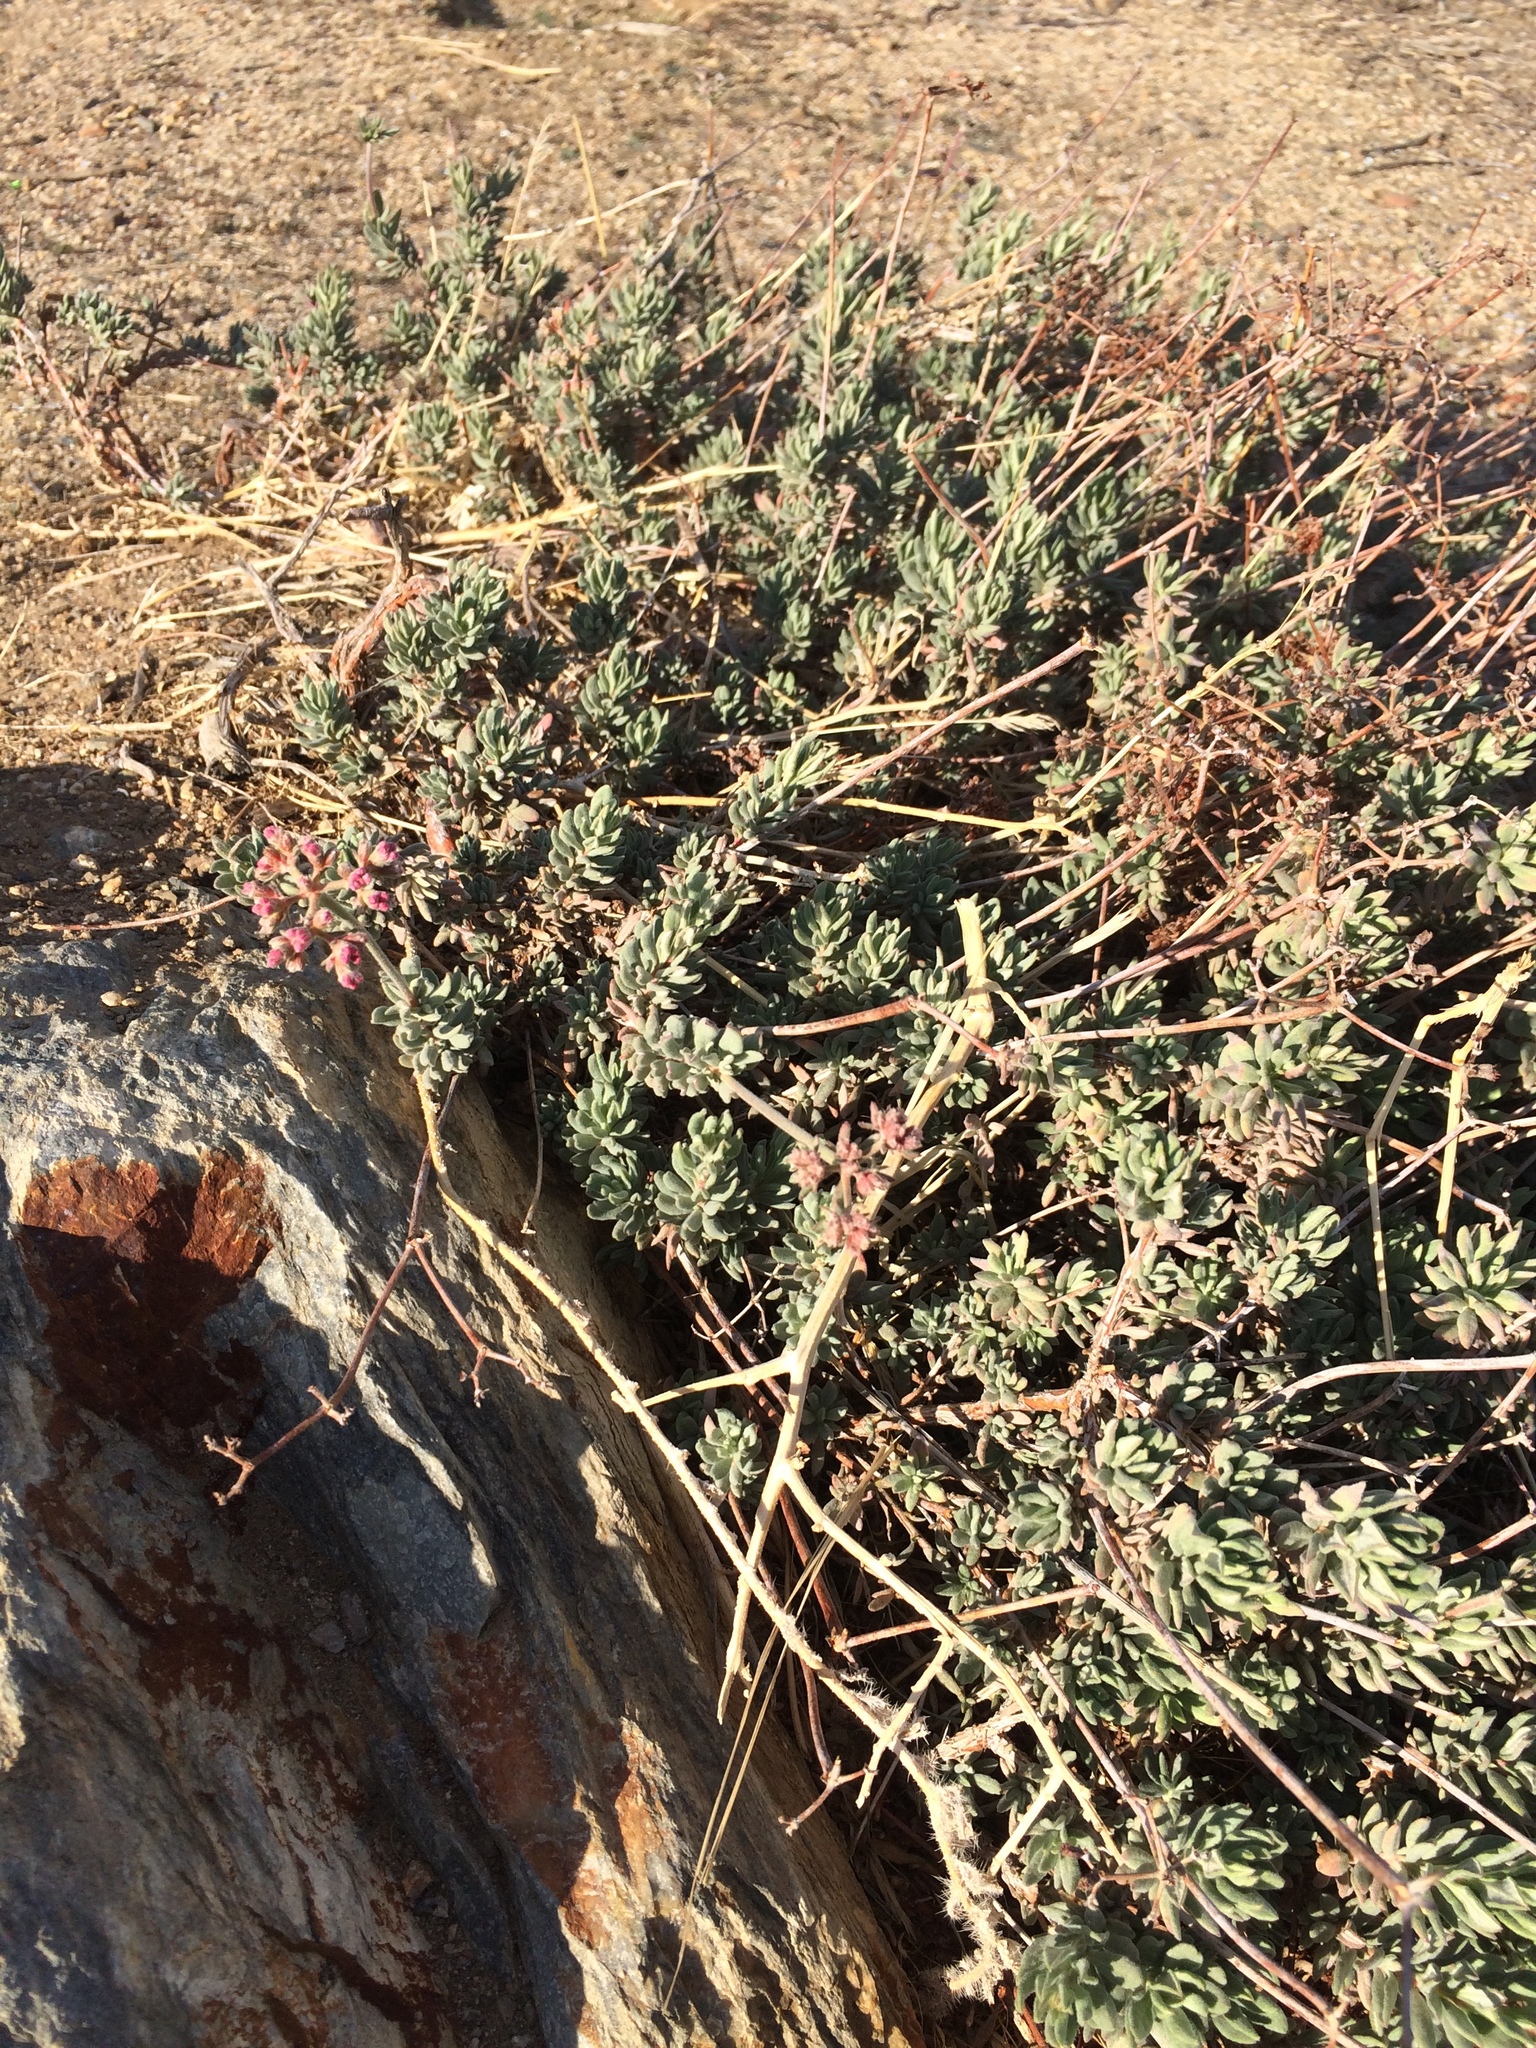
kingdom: Plantae
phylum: Tracheophyta
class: Magnoliopsida
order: Caryophyllales
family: Polygonaceae
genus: Eriogonum
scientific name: Eriogonum fasciculatum
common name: California wild buckwheat
